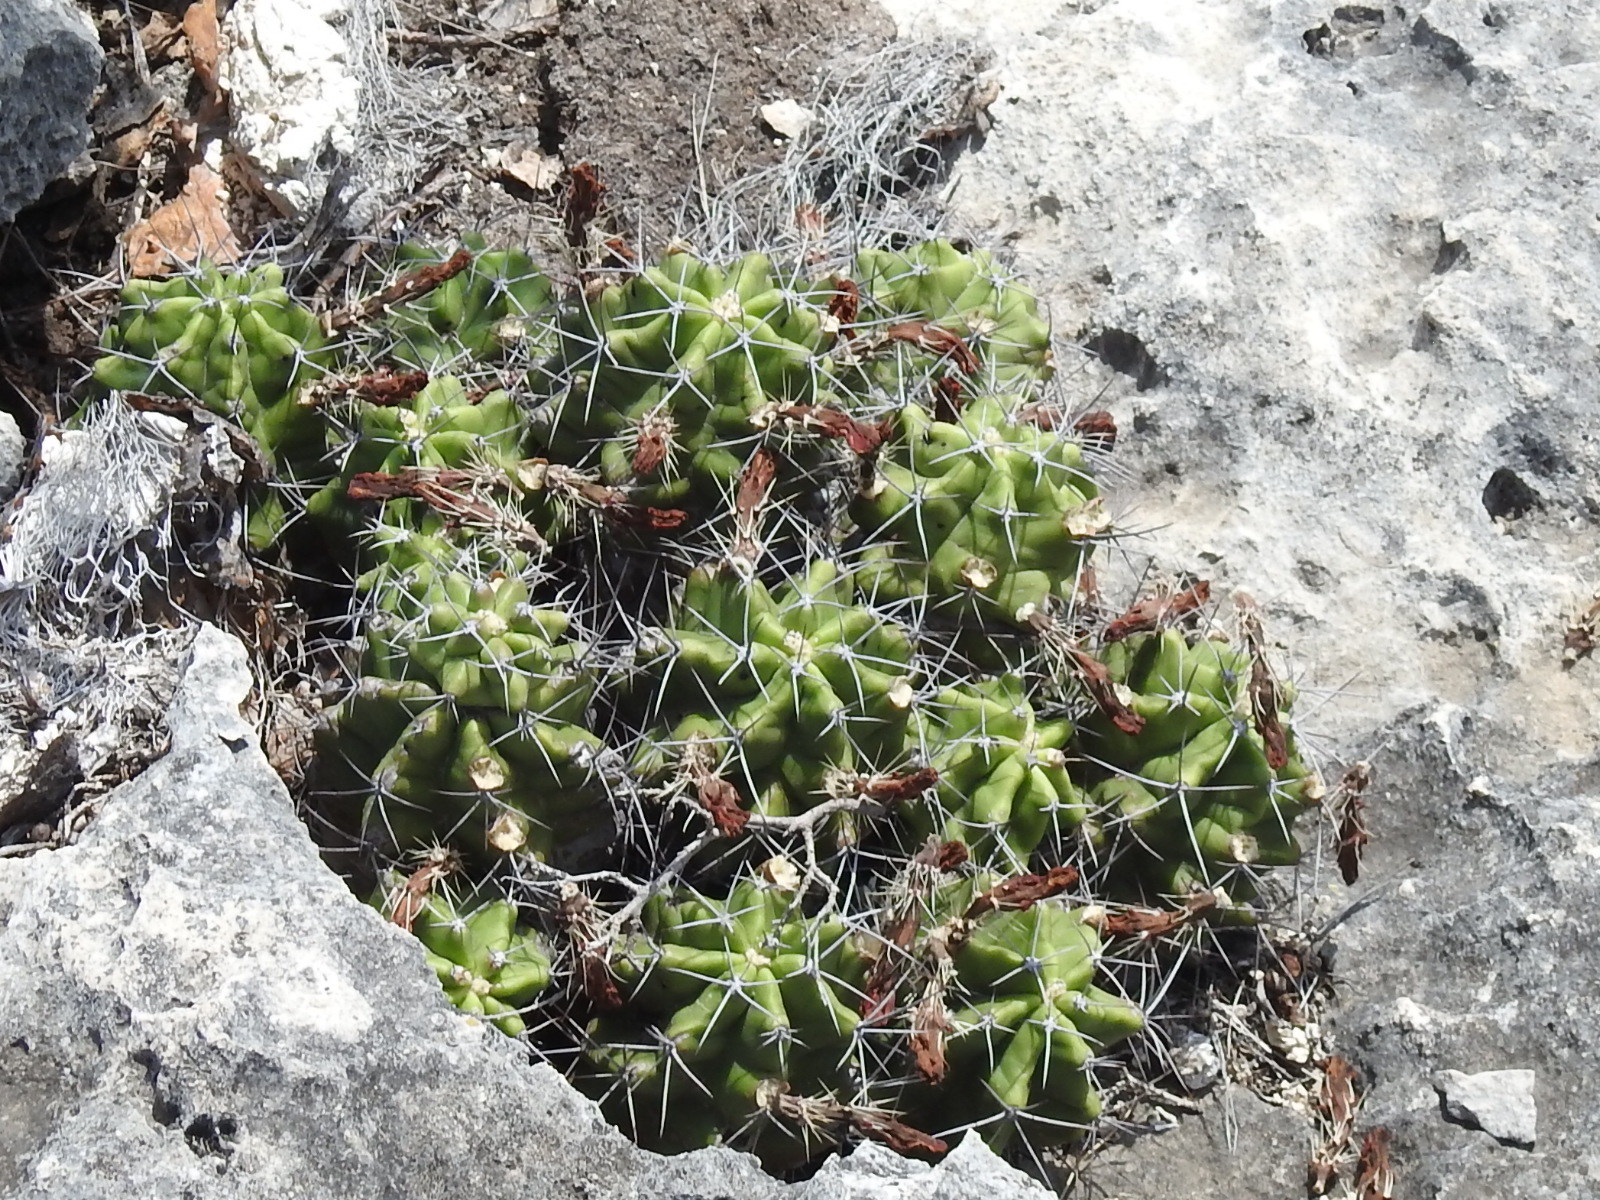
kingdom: Plantae
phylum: Tracheophyta
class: Magnoliopsida
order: Caryophyllales
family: Cactaceae
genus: Echinocereus
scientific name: Echinocereus coccineus
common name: Scarlet hedgehog cactus
